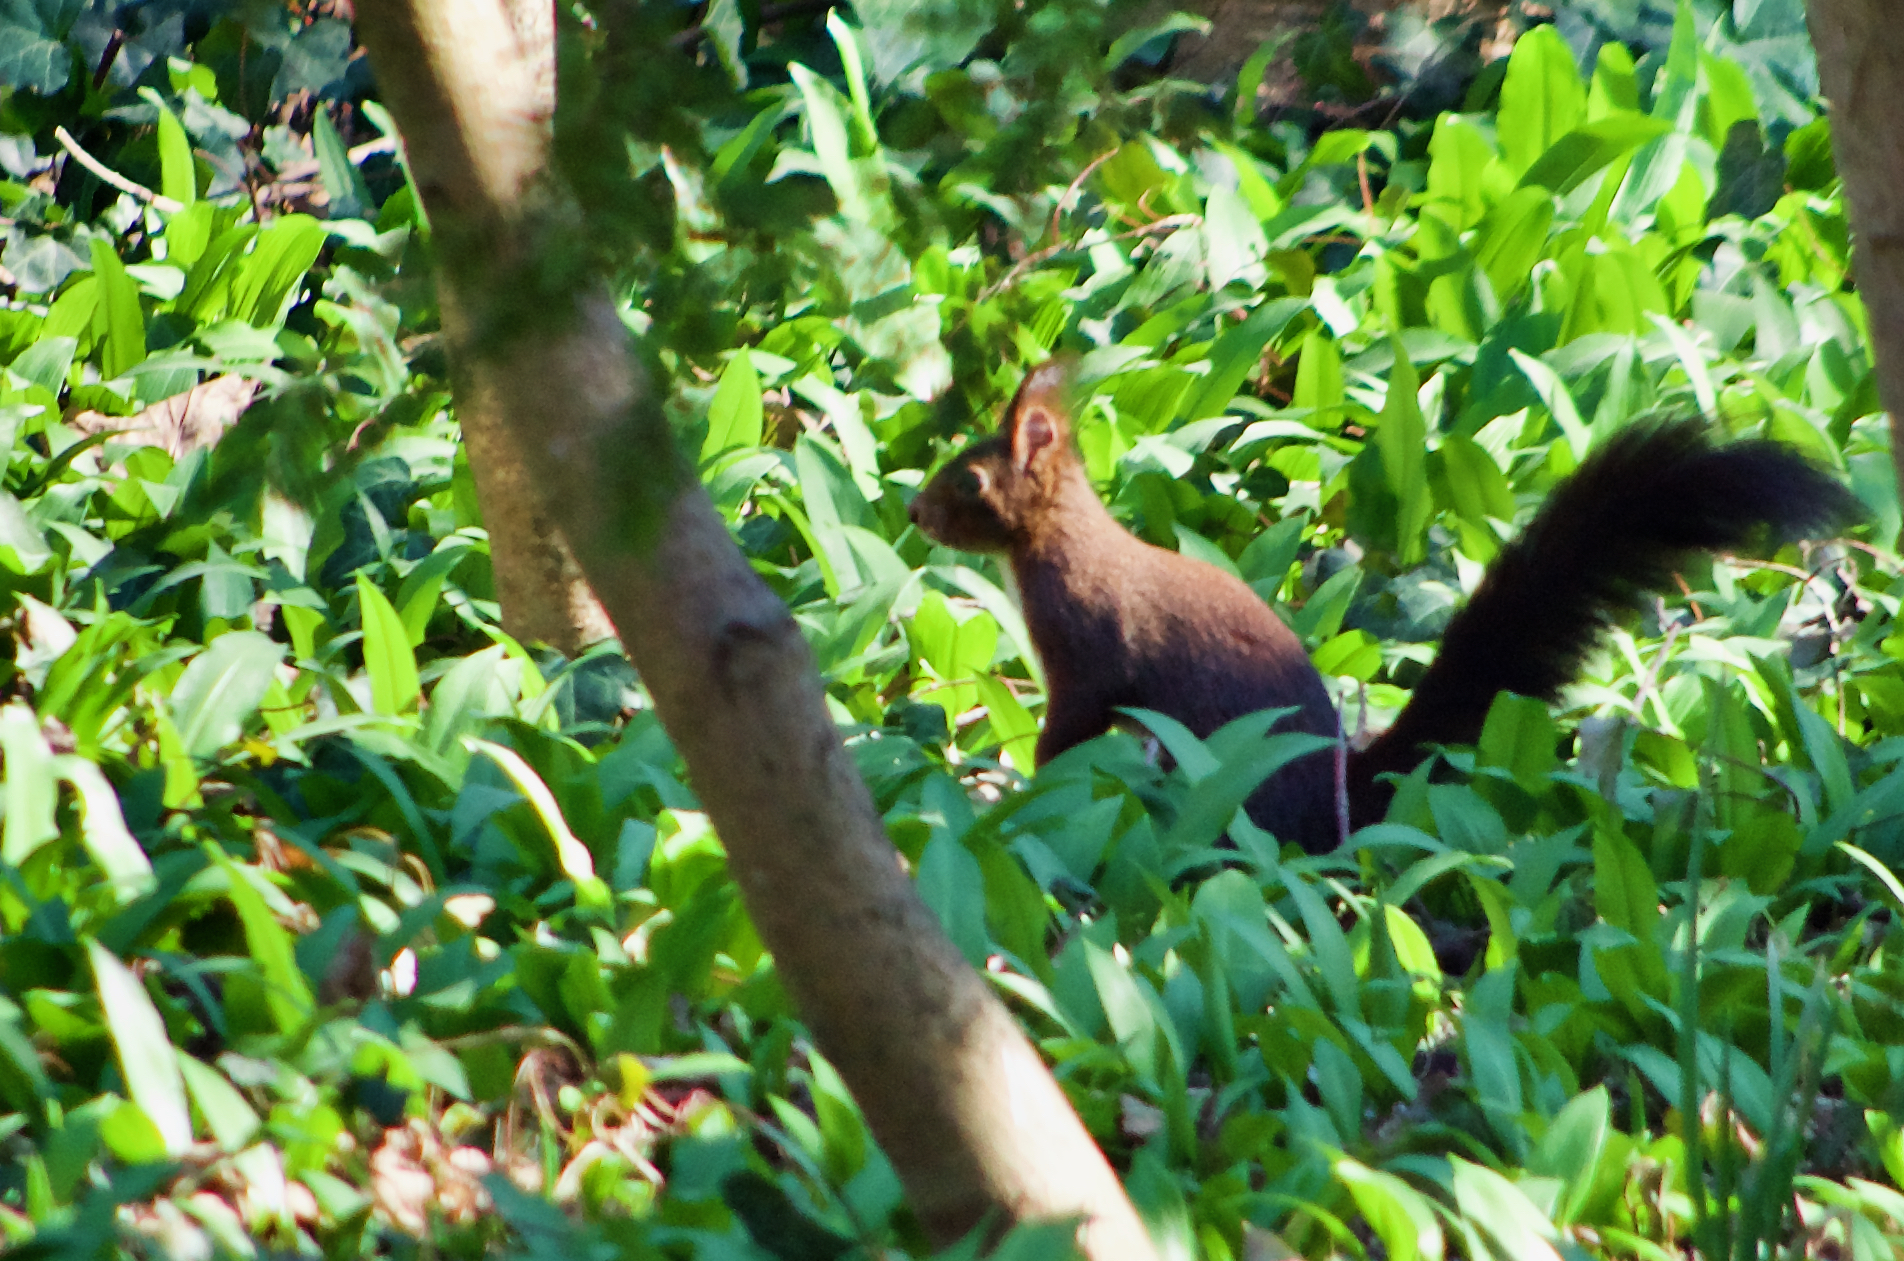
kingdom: Animalia
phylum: Chordata
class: Mammalia
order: Rodentia
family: Sciuridae
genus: Sciurus
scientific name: Sciurus vulgaris
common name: Eurasian red squirrel
